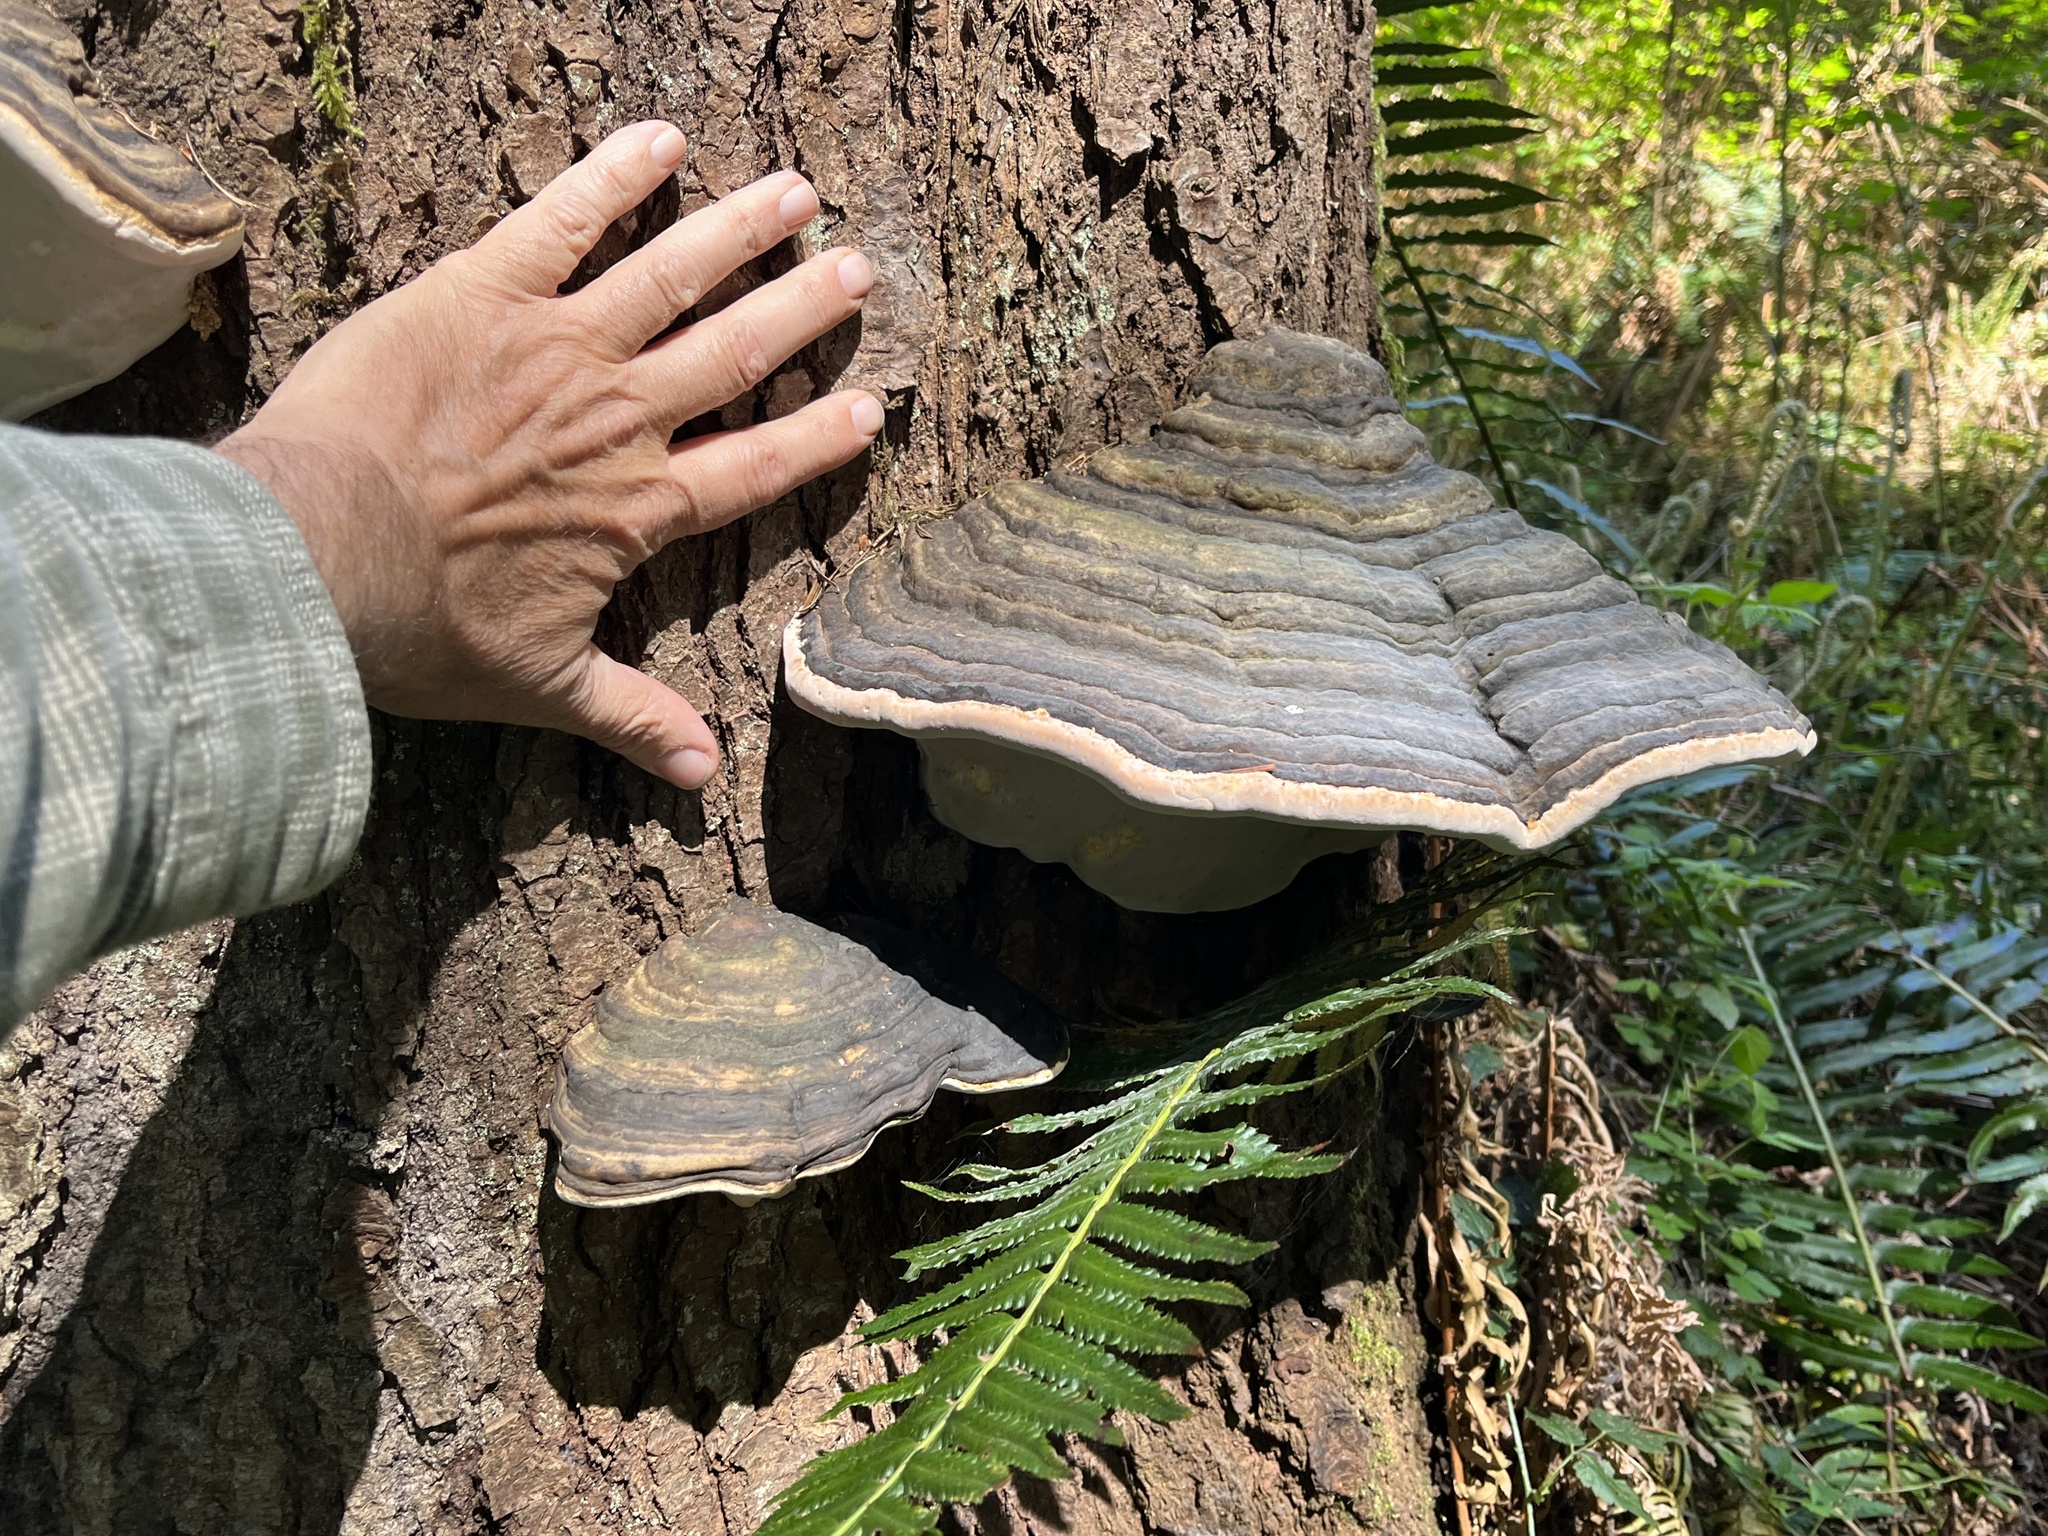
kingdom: Fungi
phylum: Basidiomycota
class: Agaricomycetes
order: Polyporales
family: Fomitopsidaceae
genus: Fomitopsis
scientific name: Fomitopsis ochracea
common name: American brown fomitopsis
